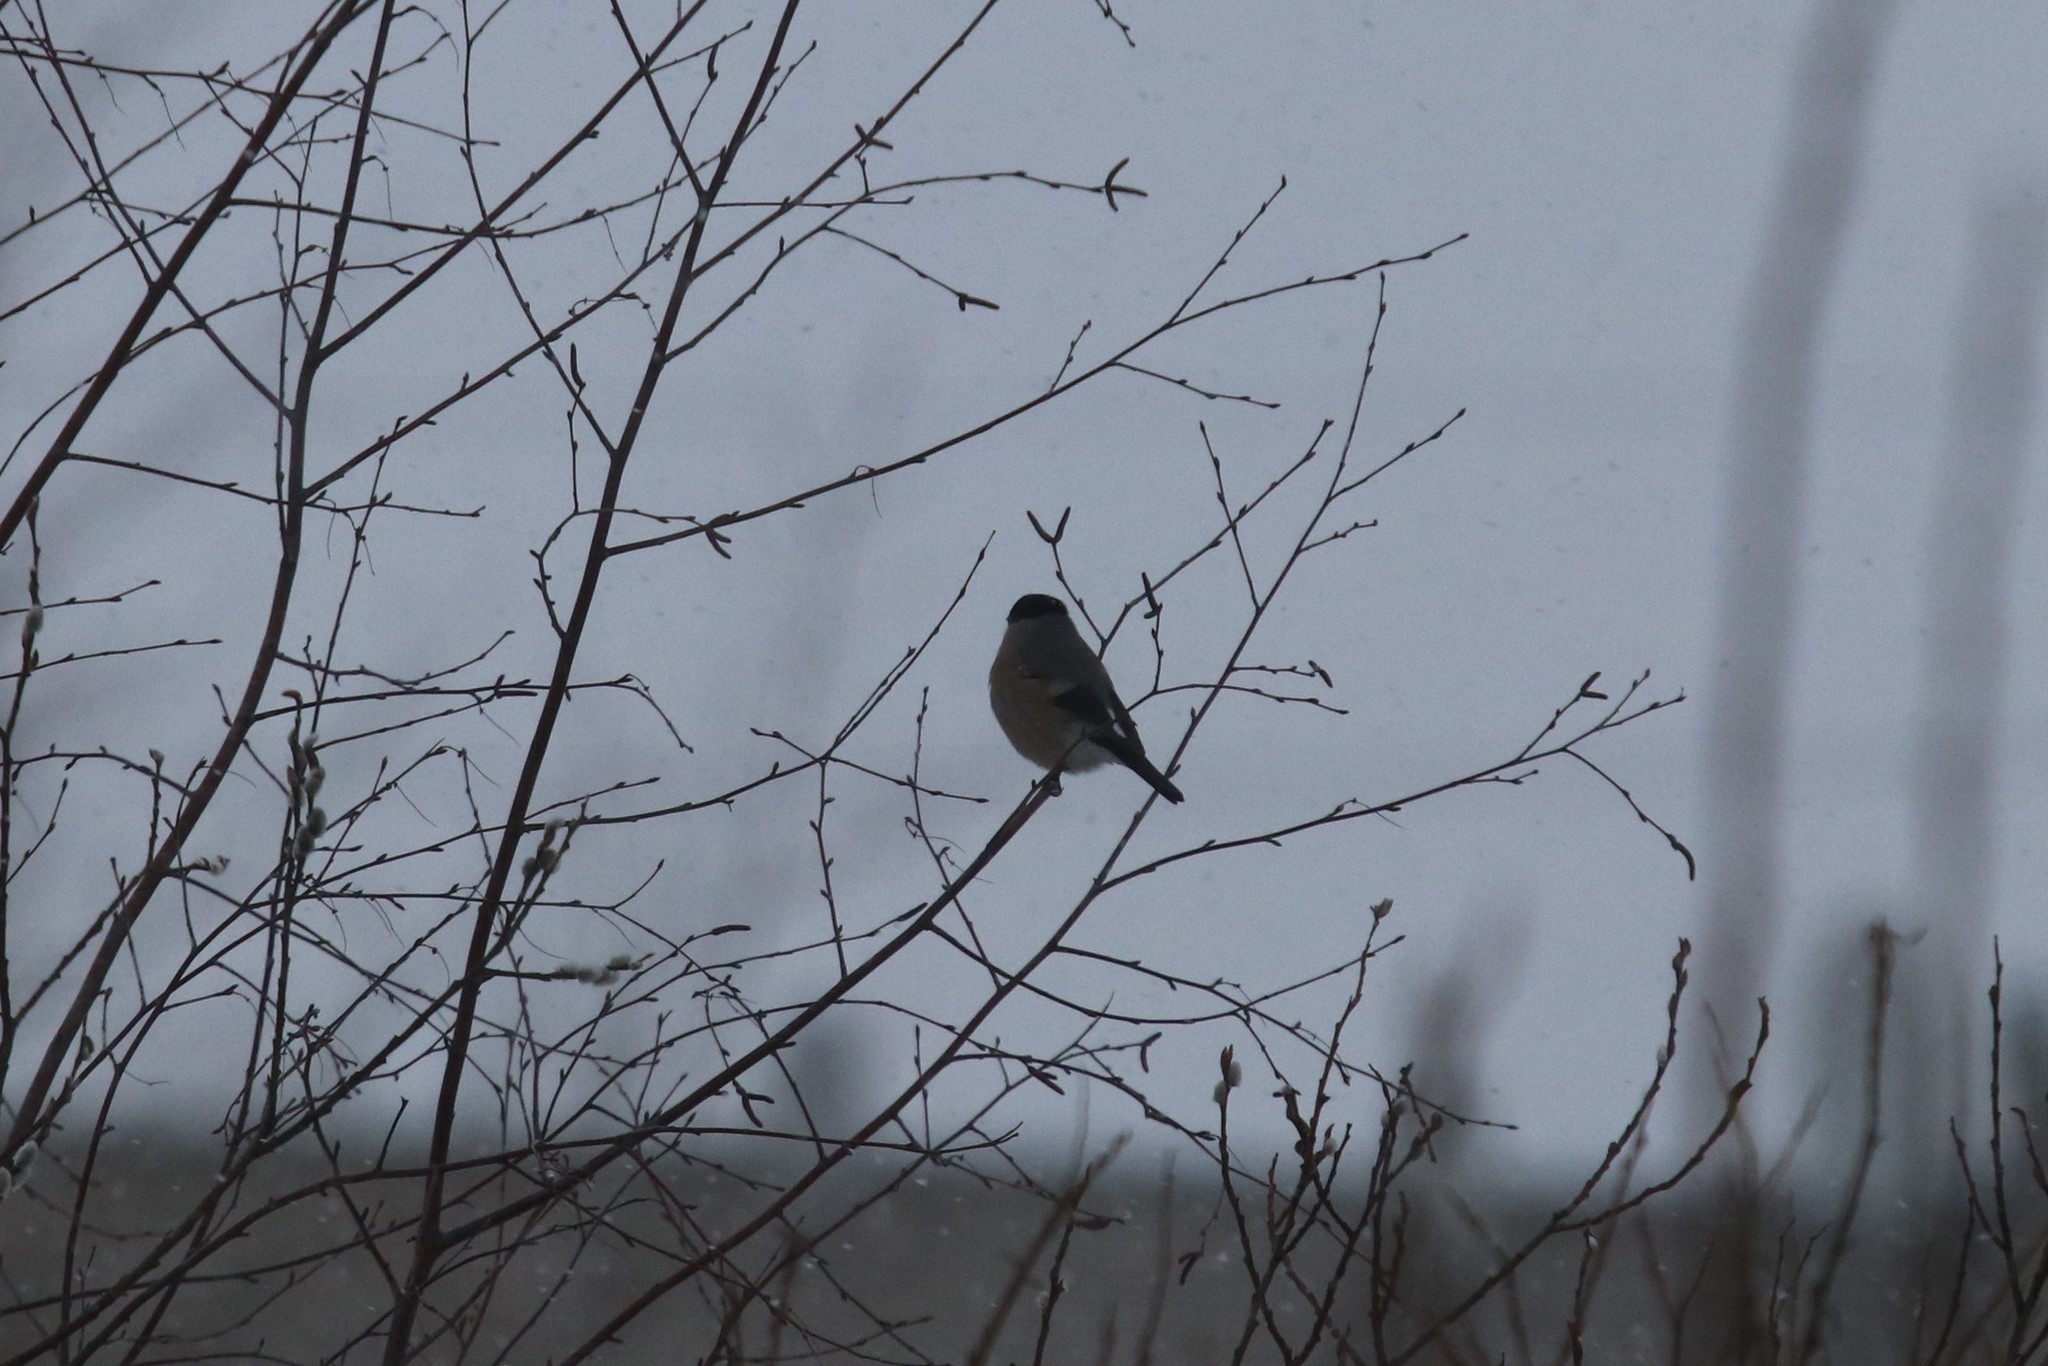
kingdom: Animalia
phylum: Chordata
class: Aves
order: Passeriformes
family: Fringillidae
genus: Pyrrhula
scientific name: Pyrrhula pyrrhula
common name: Eurasian bullfinch
